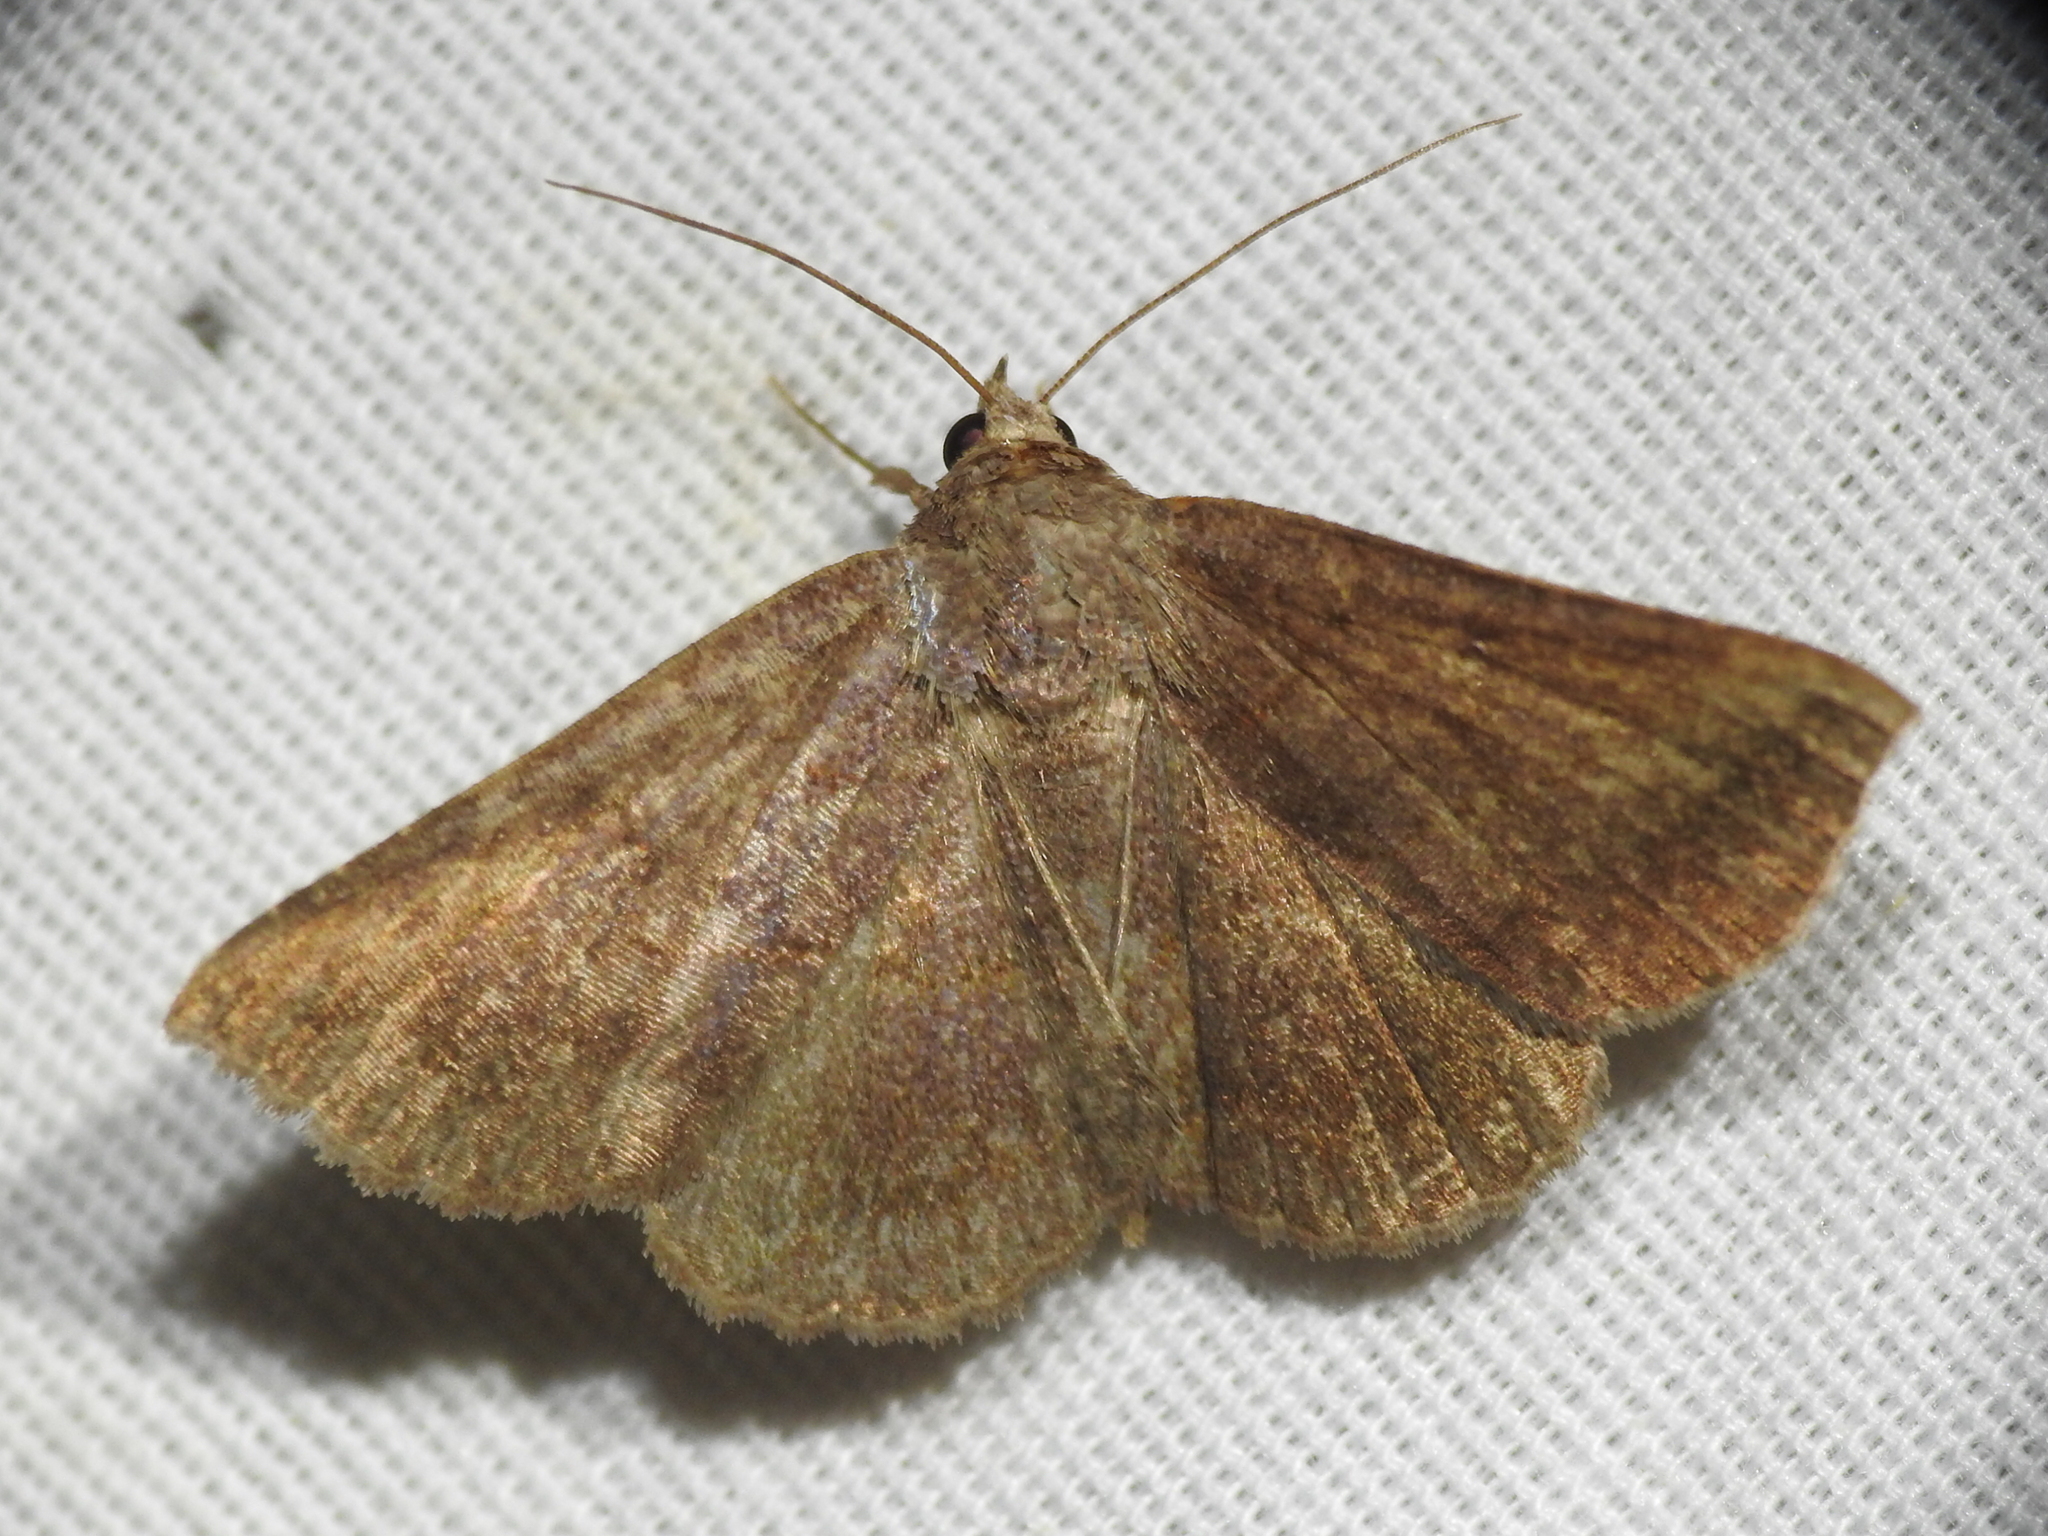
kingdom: Animalia
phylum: Arthropoda
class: Insecta
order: Lepidoptera
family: Erebidae
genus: Lesmone
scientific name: Lesmone detrahens
